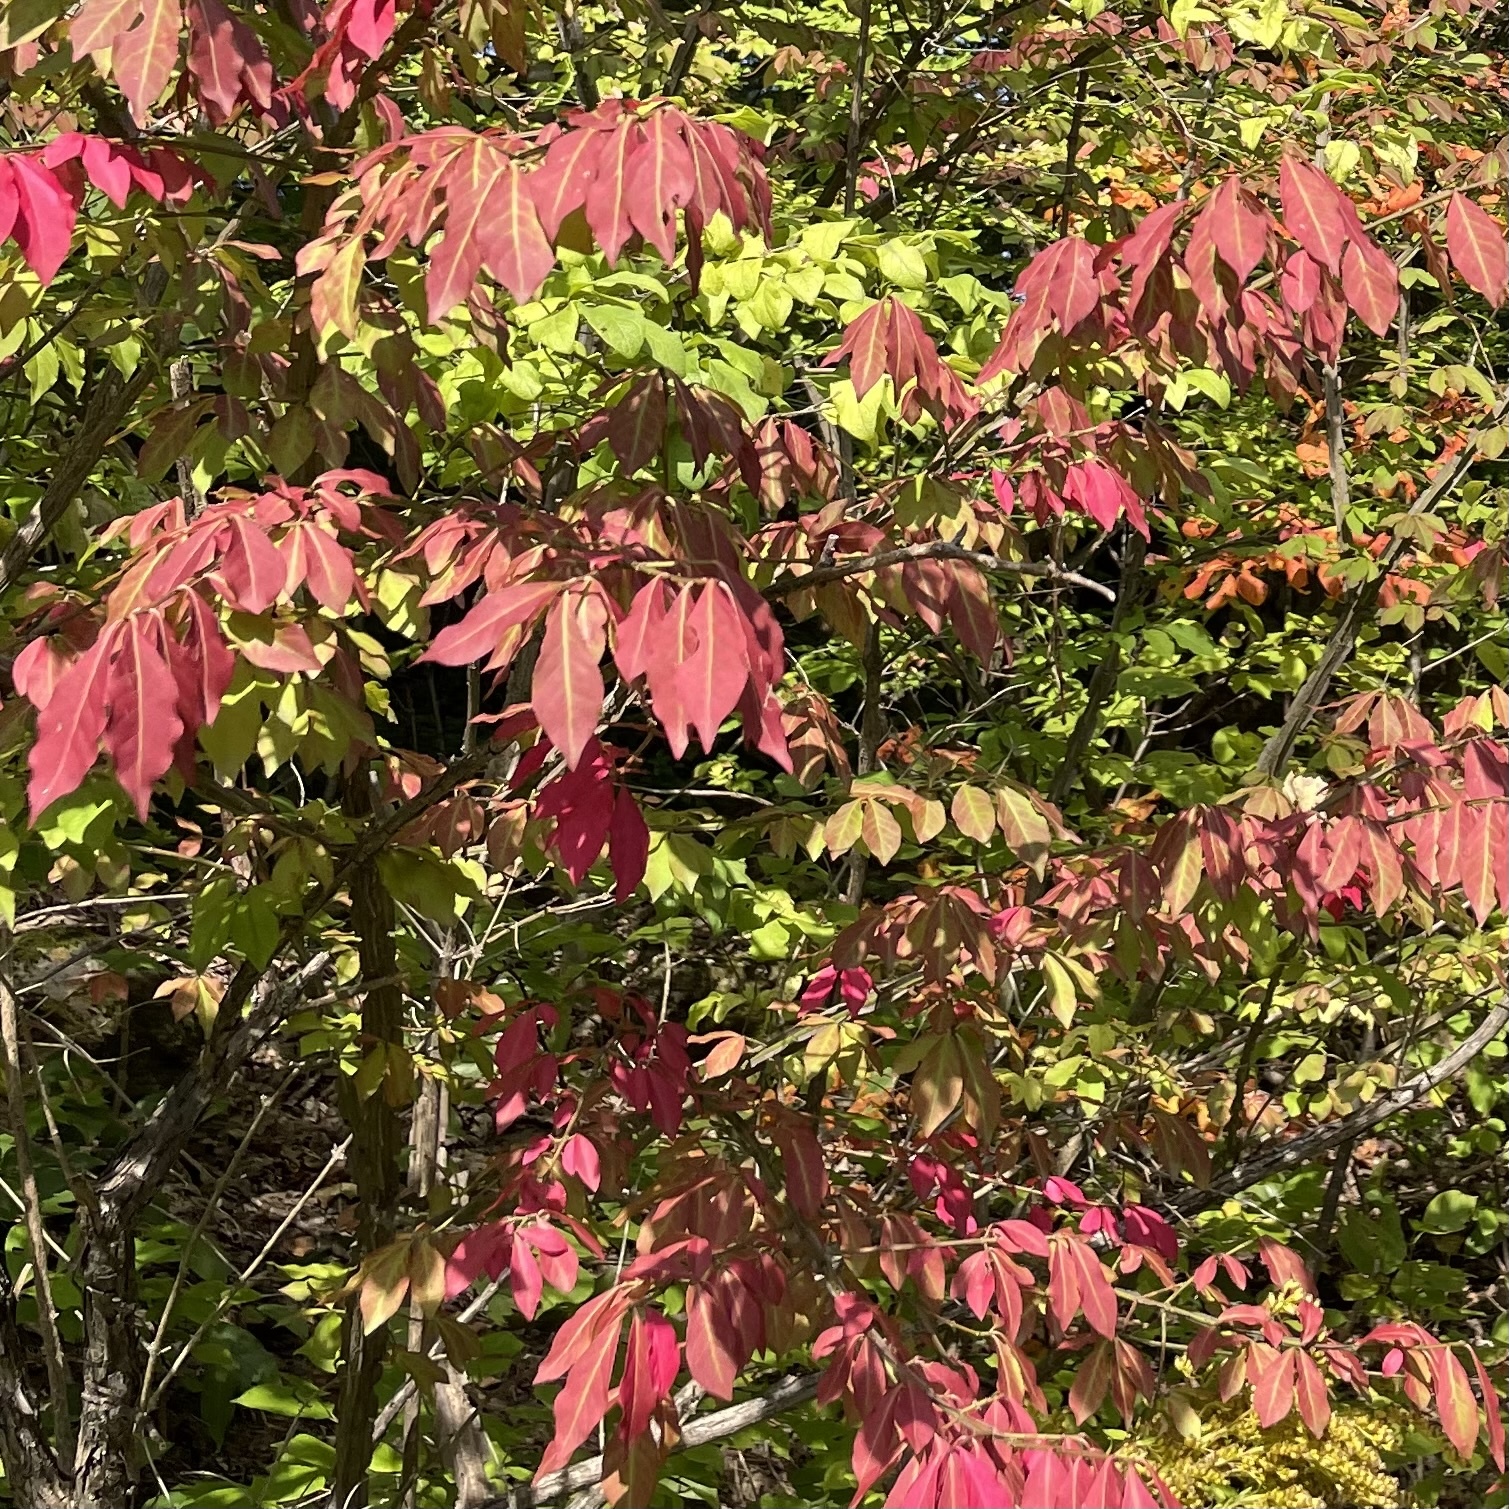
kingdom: Plantae
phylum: Tracheophyta
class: Magnoliopsida
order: Celastrales
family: Celastraceae
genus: Euonymus
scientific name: Euonymus alatus
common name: Winged euonymus
